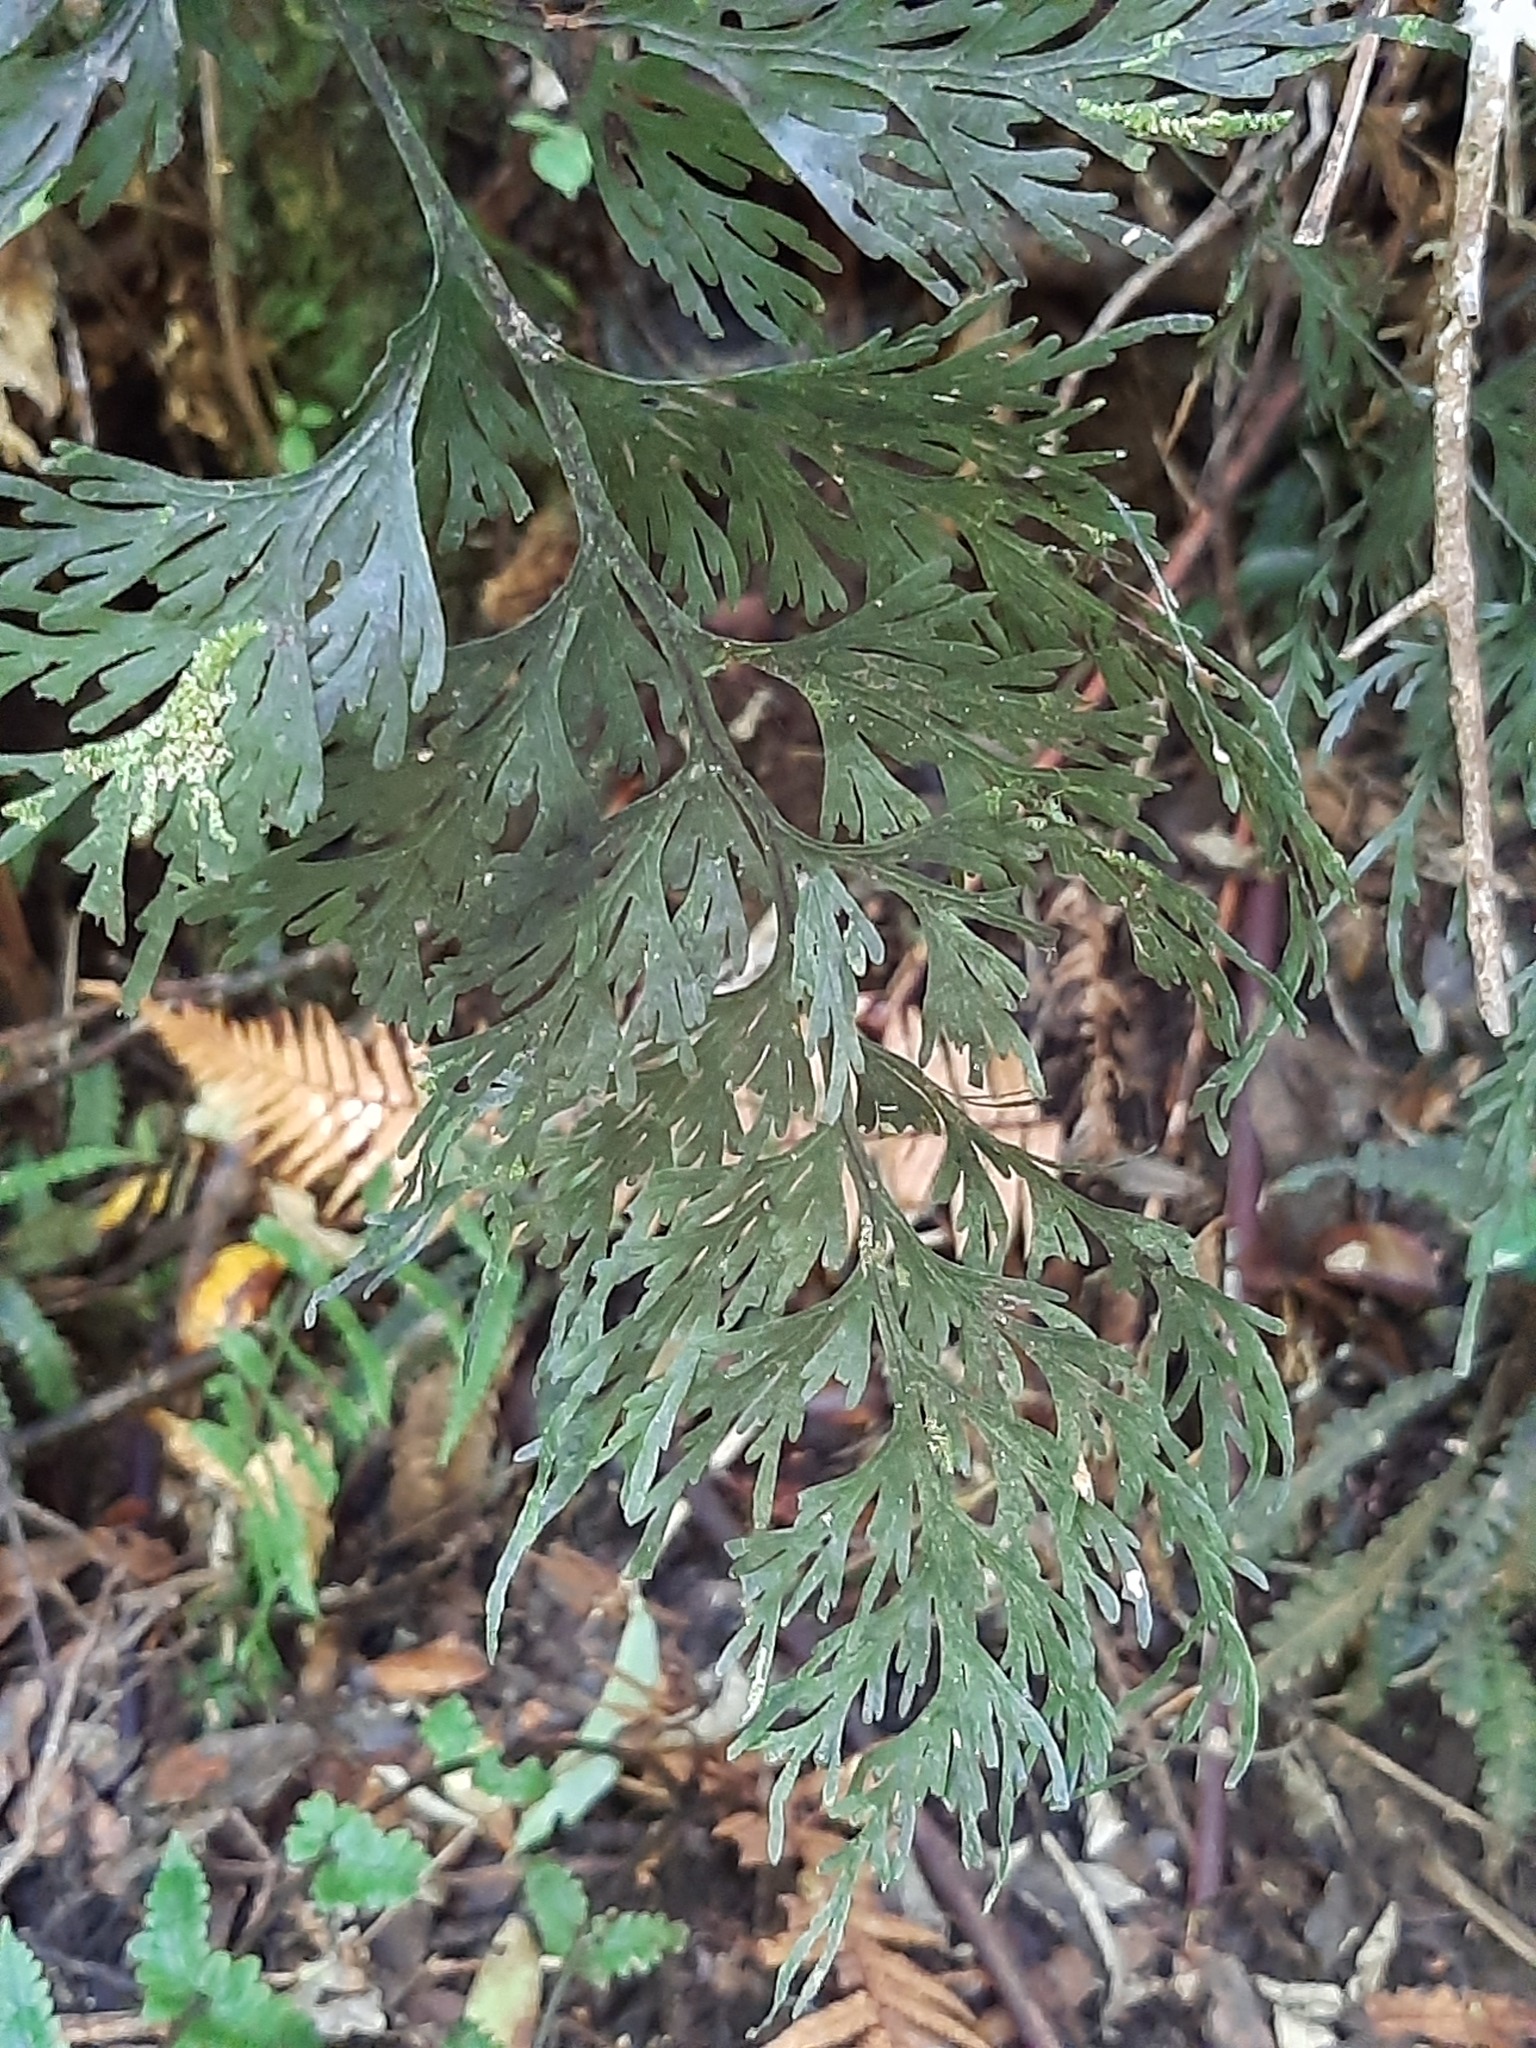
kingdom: Plantae
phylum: Tracheophyta
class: Polypodiopsida
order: Hymenophyllales
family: Hymenophyllaceae
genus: Hymenophyllum
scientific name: Hymenophyllum dilatatum
